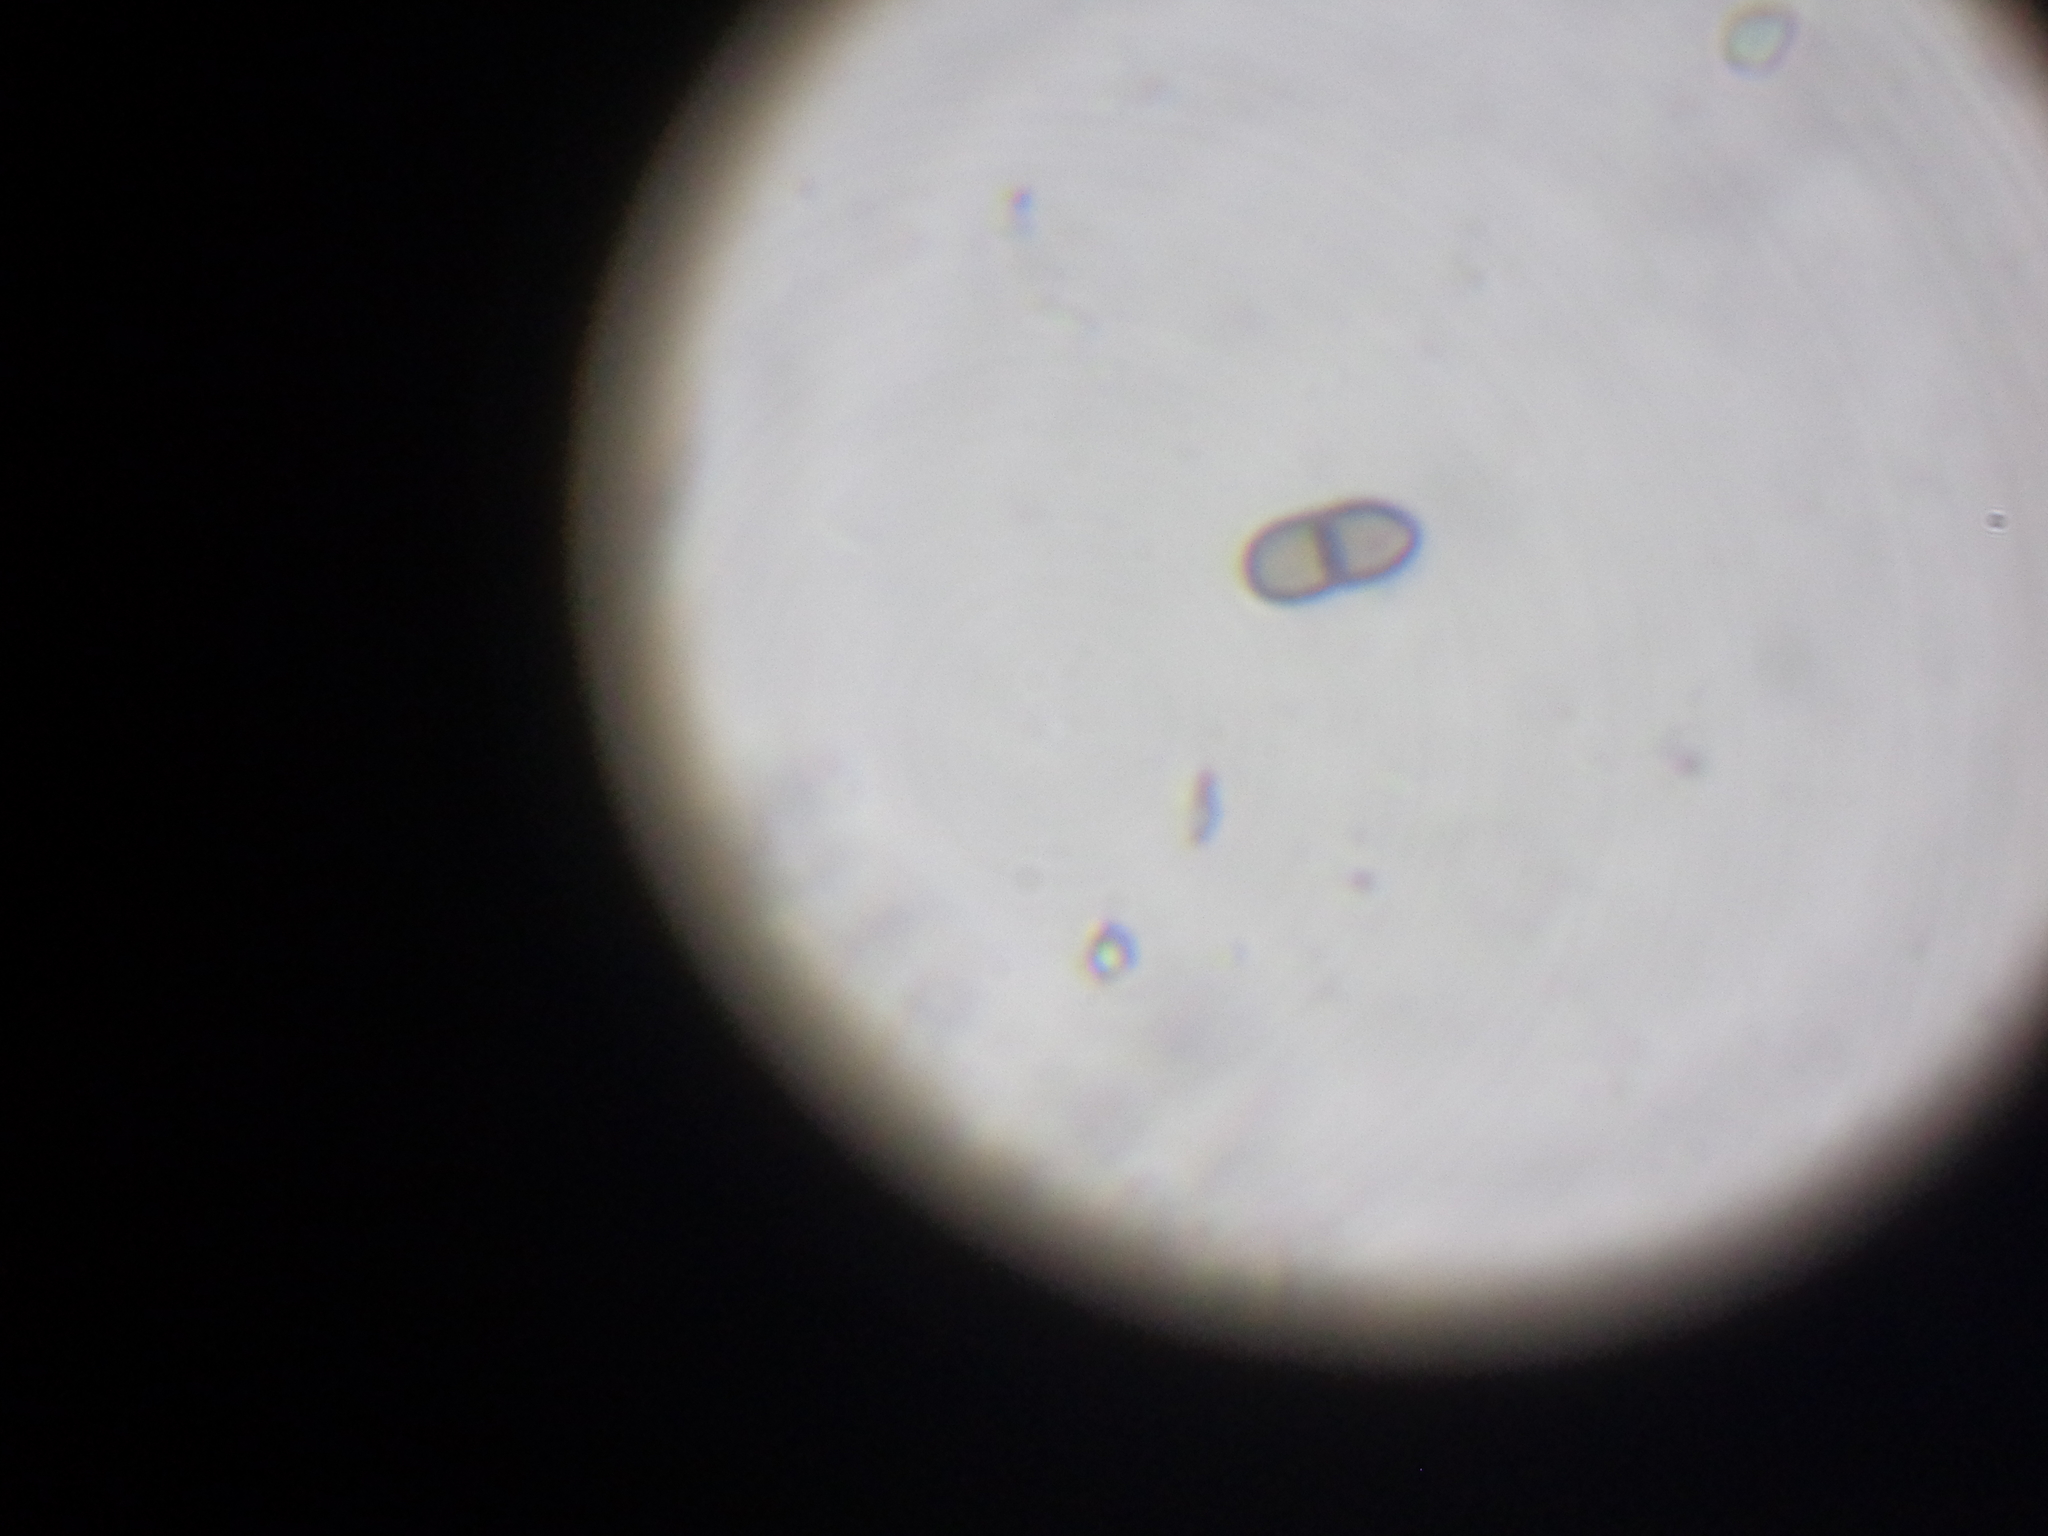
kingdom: Fungi
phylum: Basidiomycota
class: Dacrymycetes
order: Dacrymycetales
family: Dacrymycetaceae
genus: Dacryopinax
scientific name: Dacryopinax elegans
